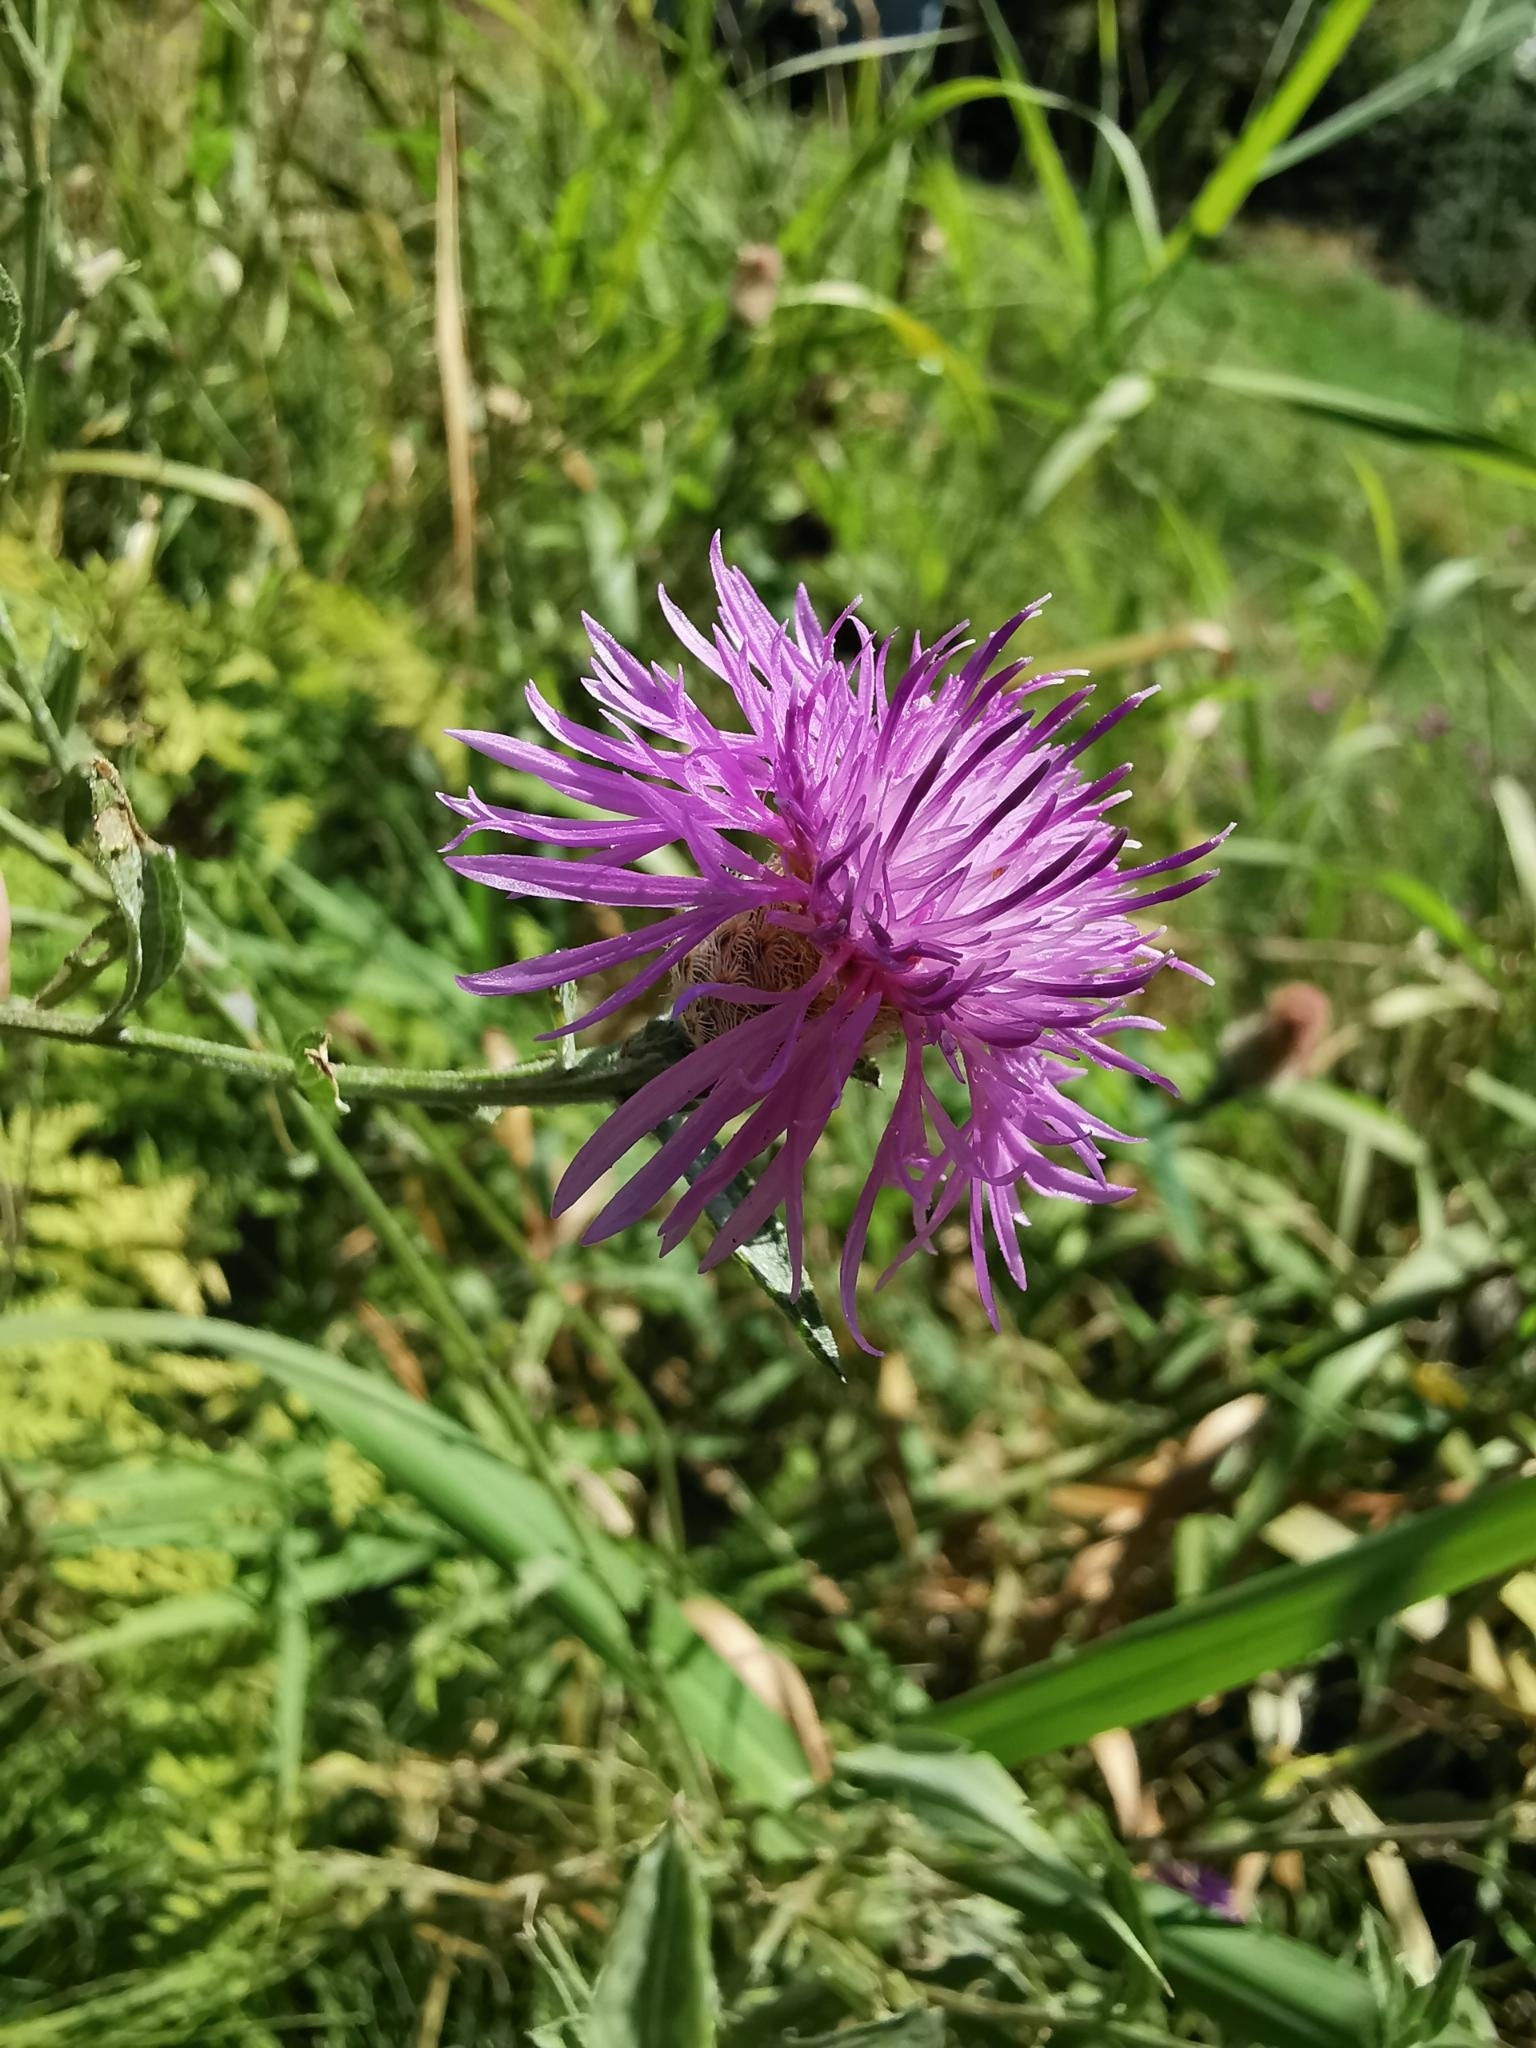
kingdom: Plantae
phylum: Tracheophyta
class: Magnoliopsida
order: Asterales
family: Asteraceae
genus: Centaurea
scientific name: Centaurea stoebe
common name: Spotted knapweed
